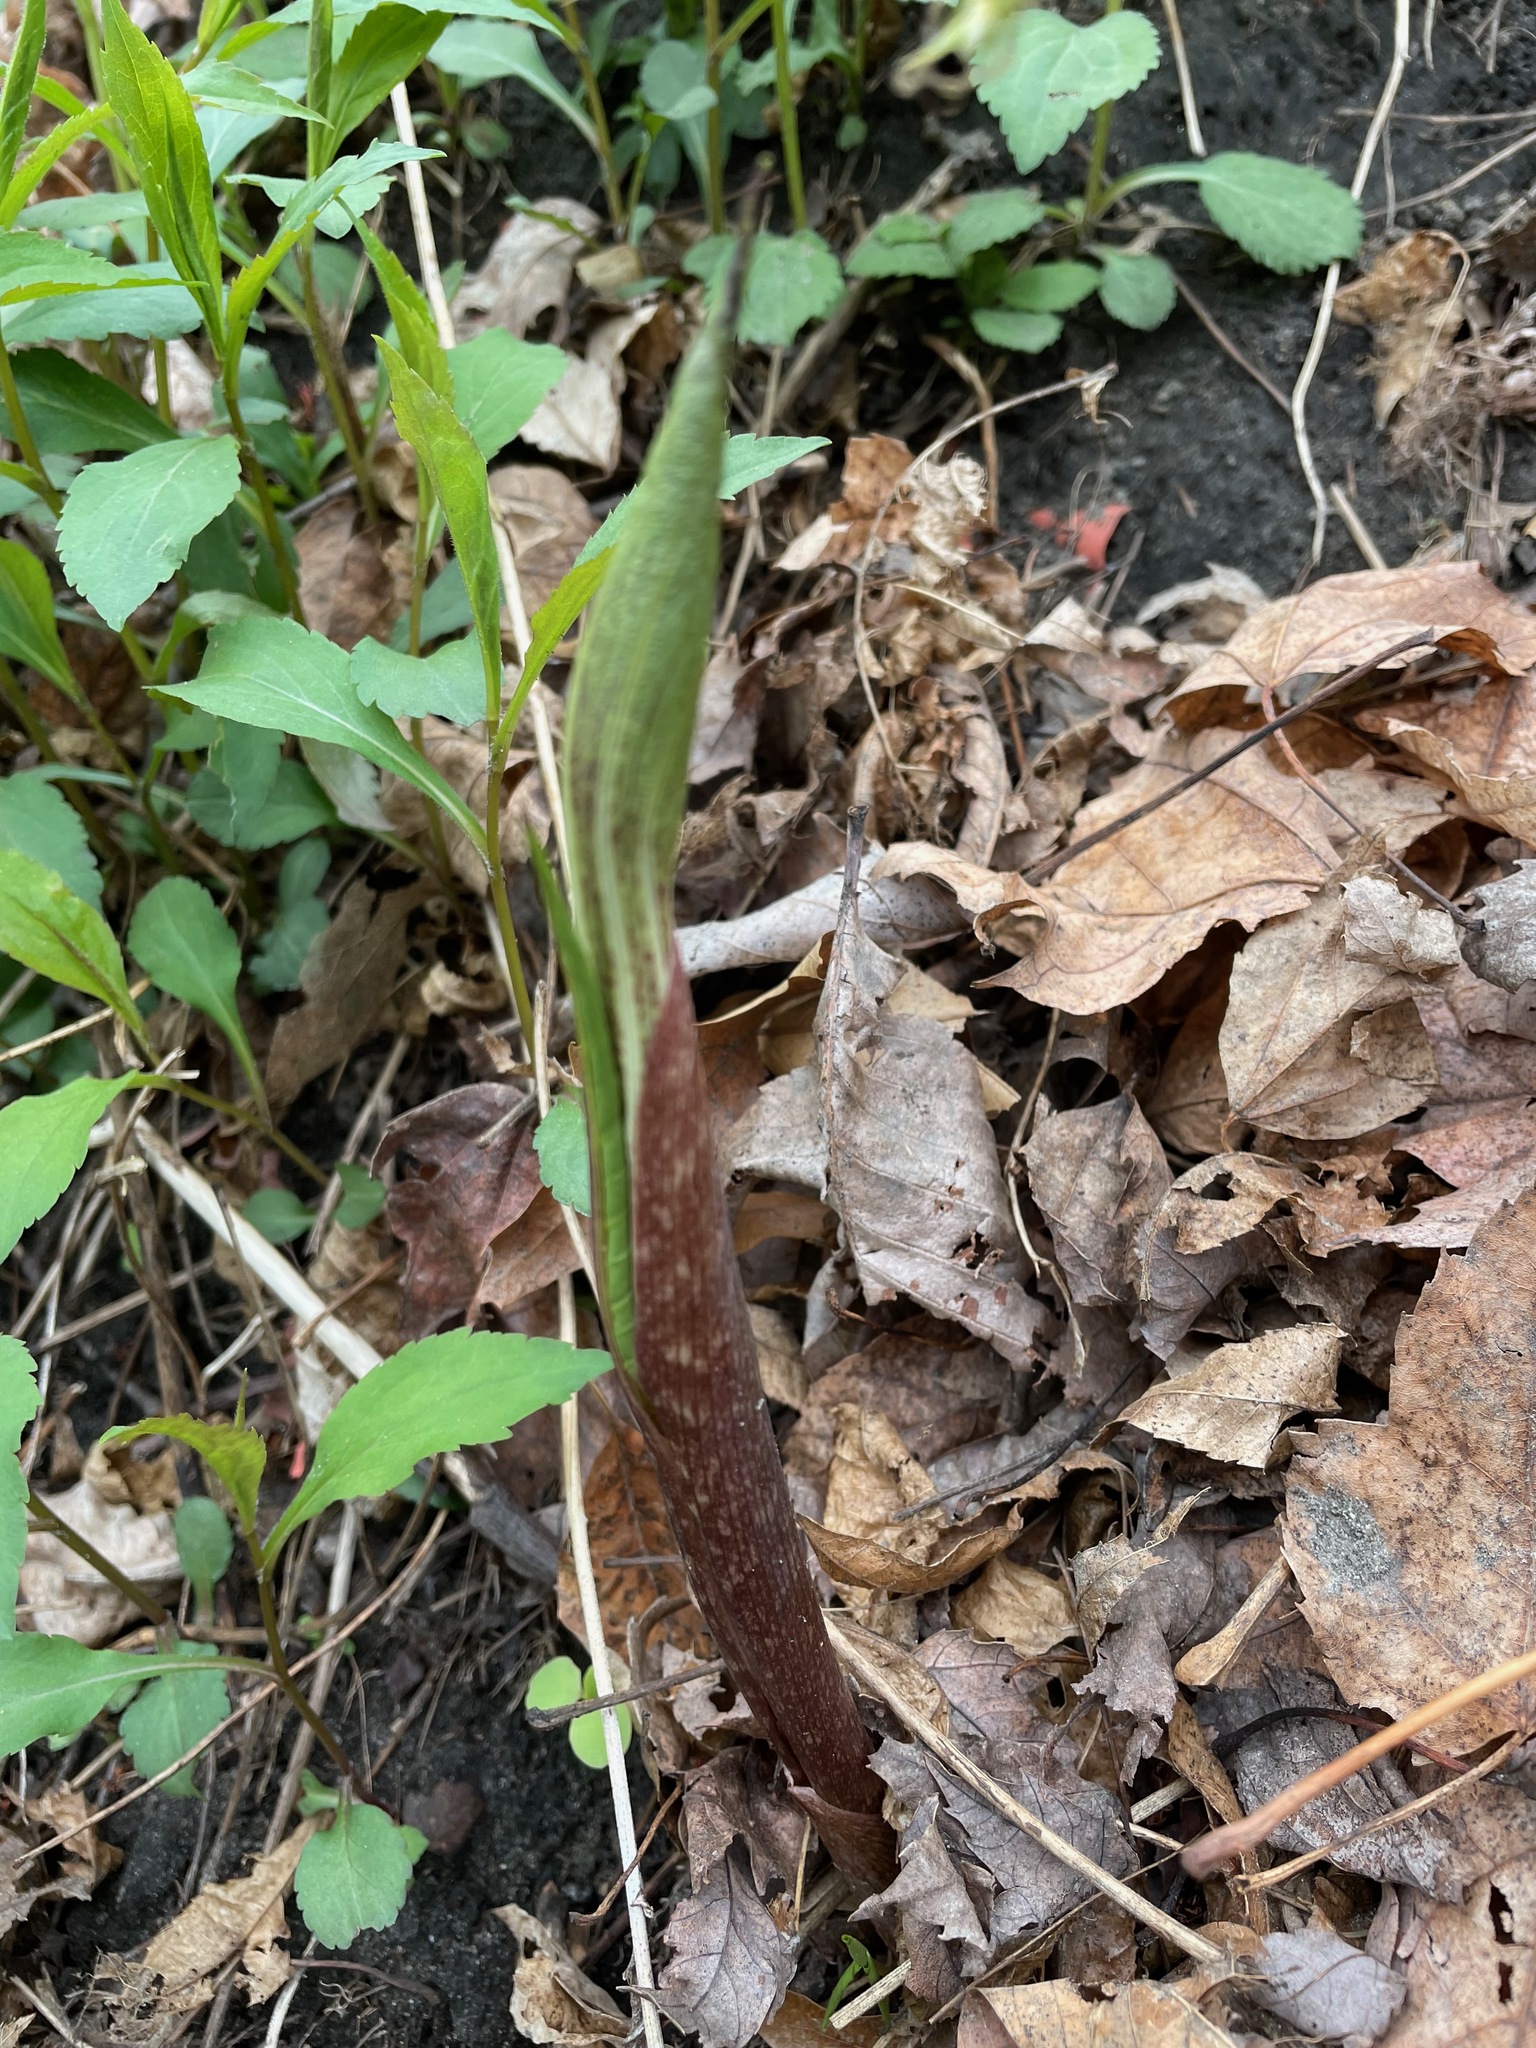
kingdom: Plantae
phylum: Tracheophyta
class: Liliopsida
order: Alismatales
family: Araceae
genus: Arisaema
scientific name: Arisaema triphyllum
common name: Jack-in-the-pulpit
